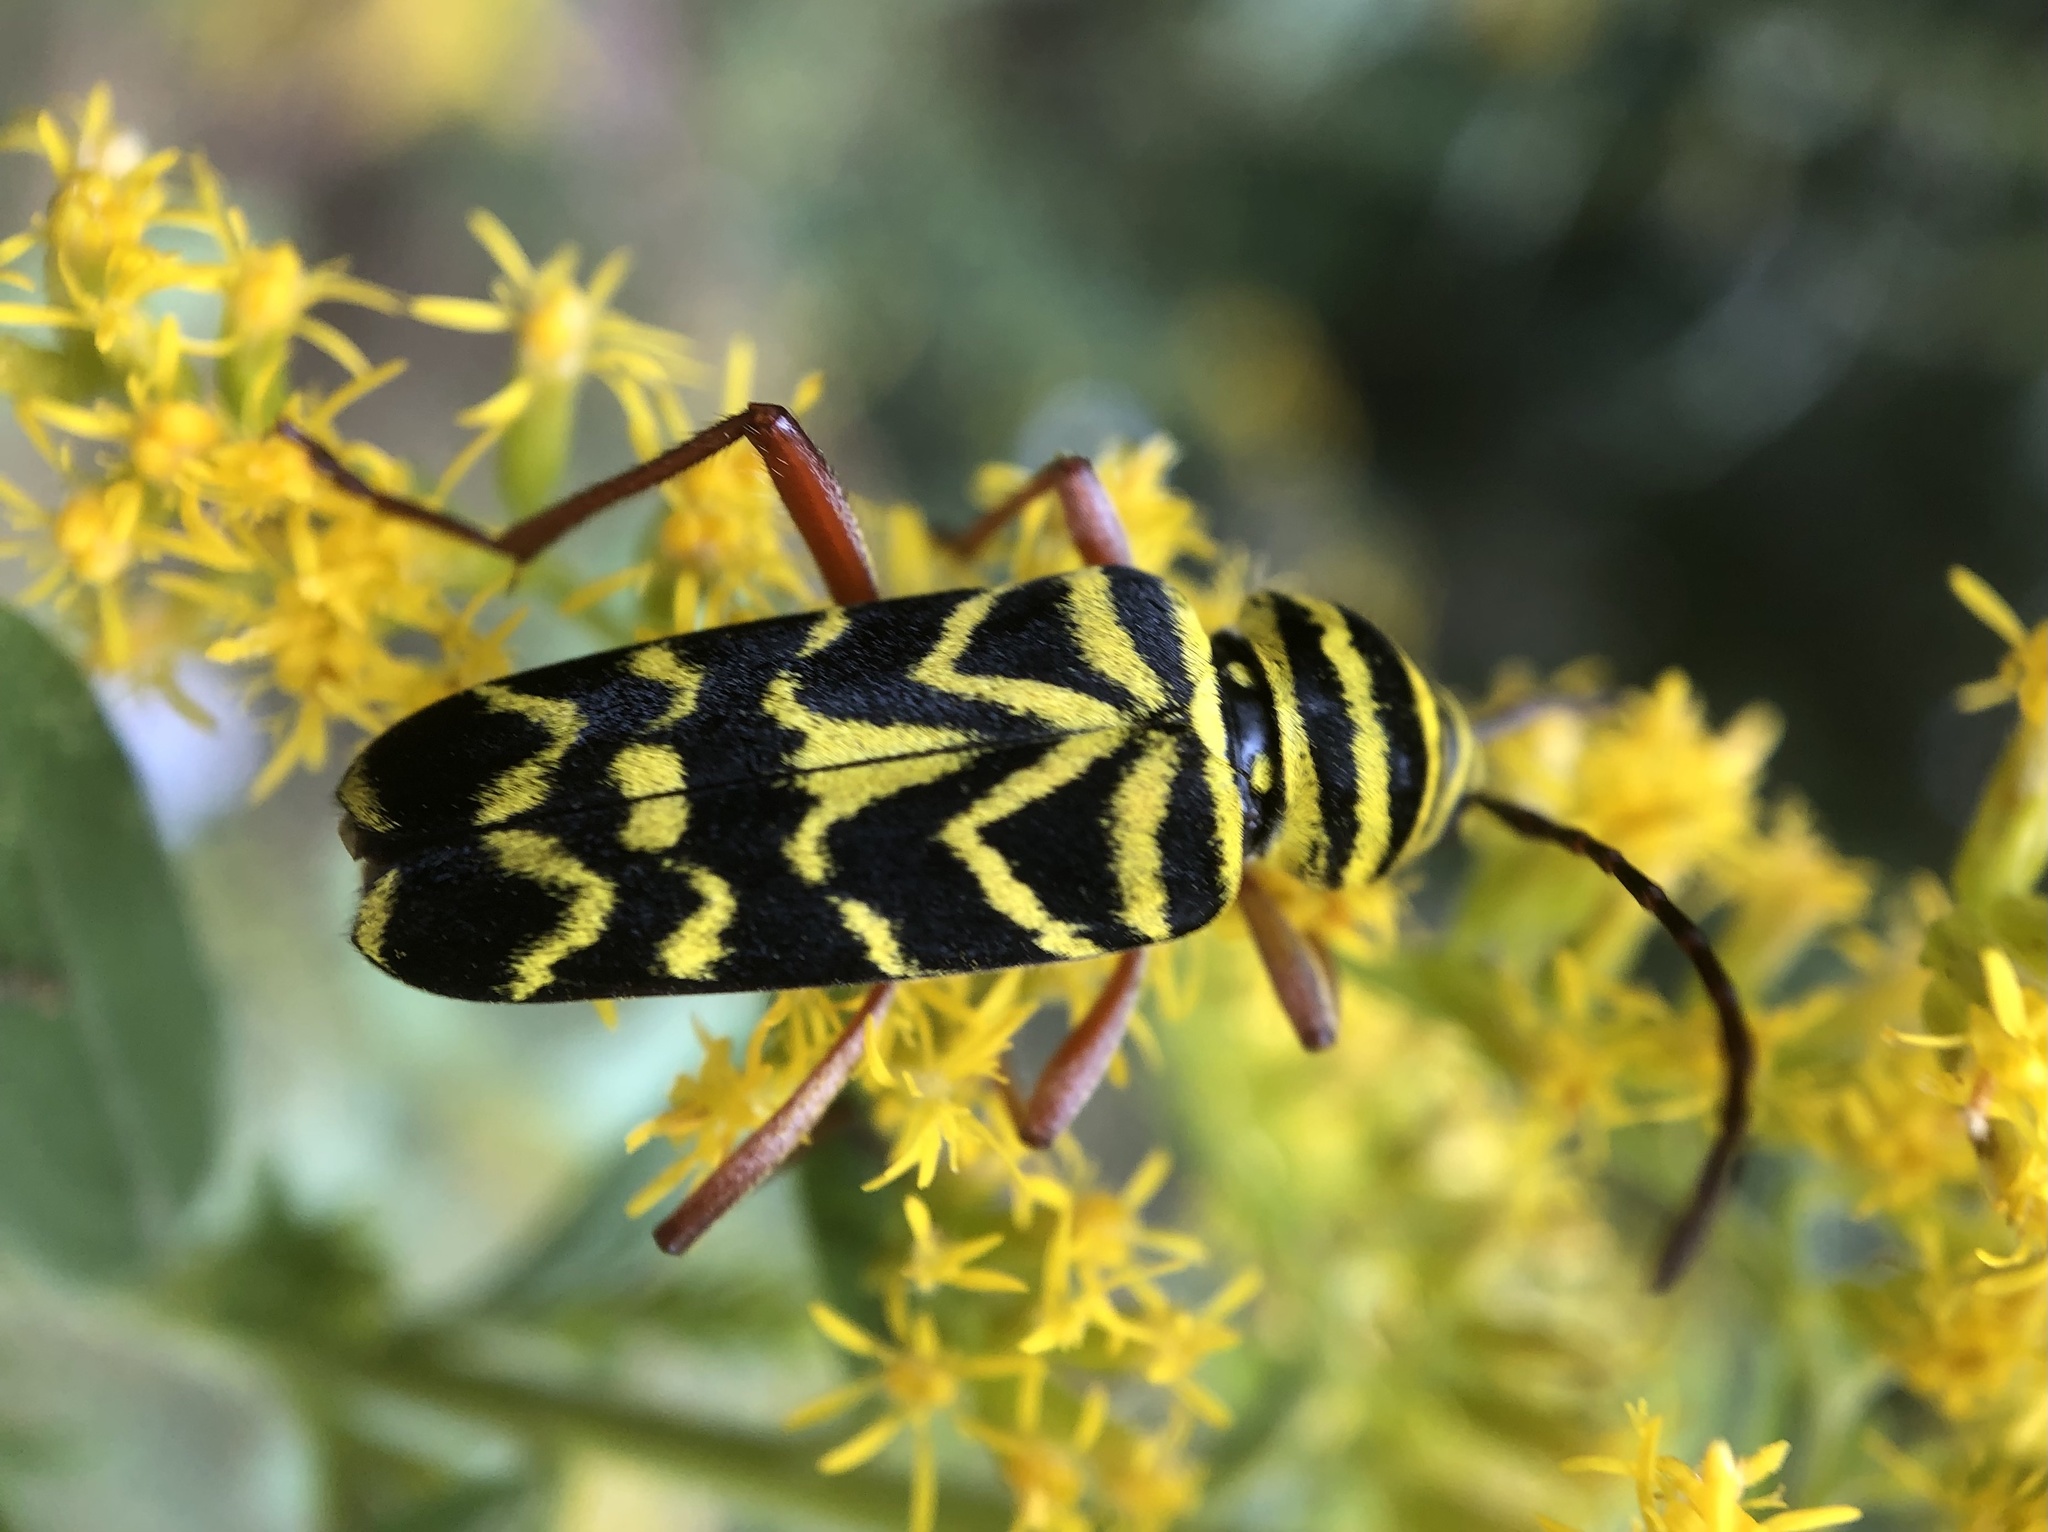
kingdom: Animalia
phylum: Arthropoda
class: Insecta
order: Coleoptera
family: Cerambycidae
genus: Megacyllene
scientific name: Megacyllene robiniae
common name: Locust borer
